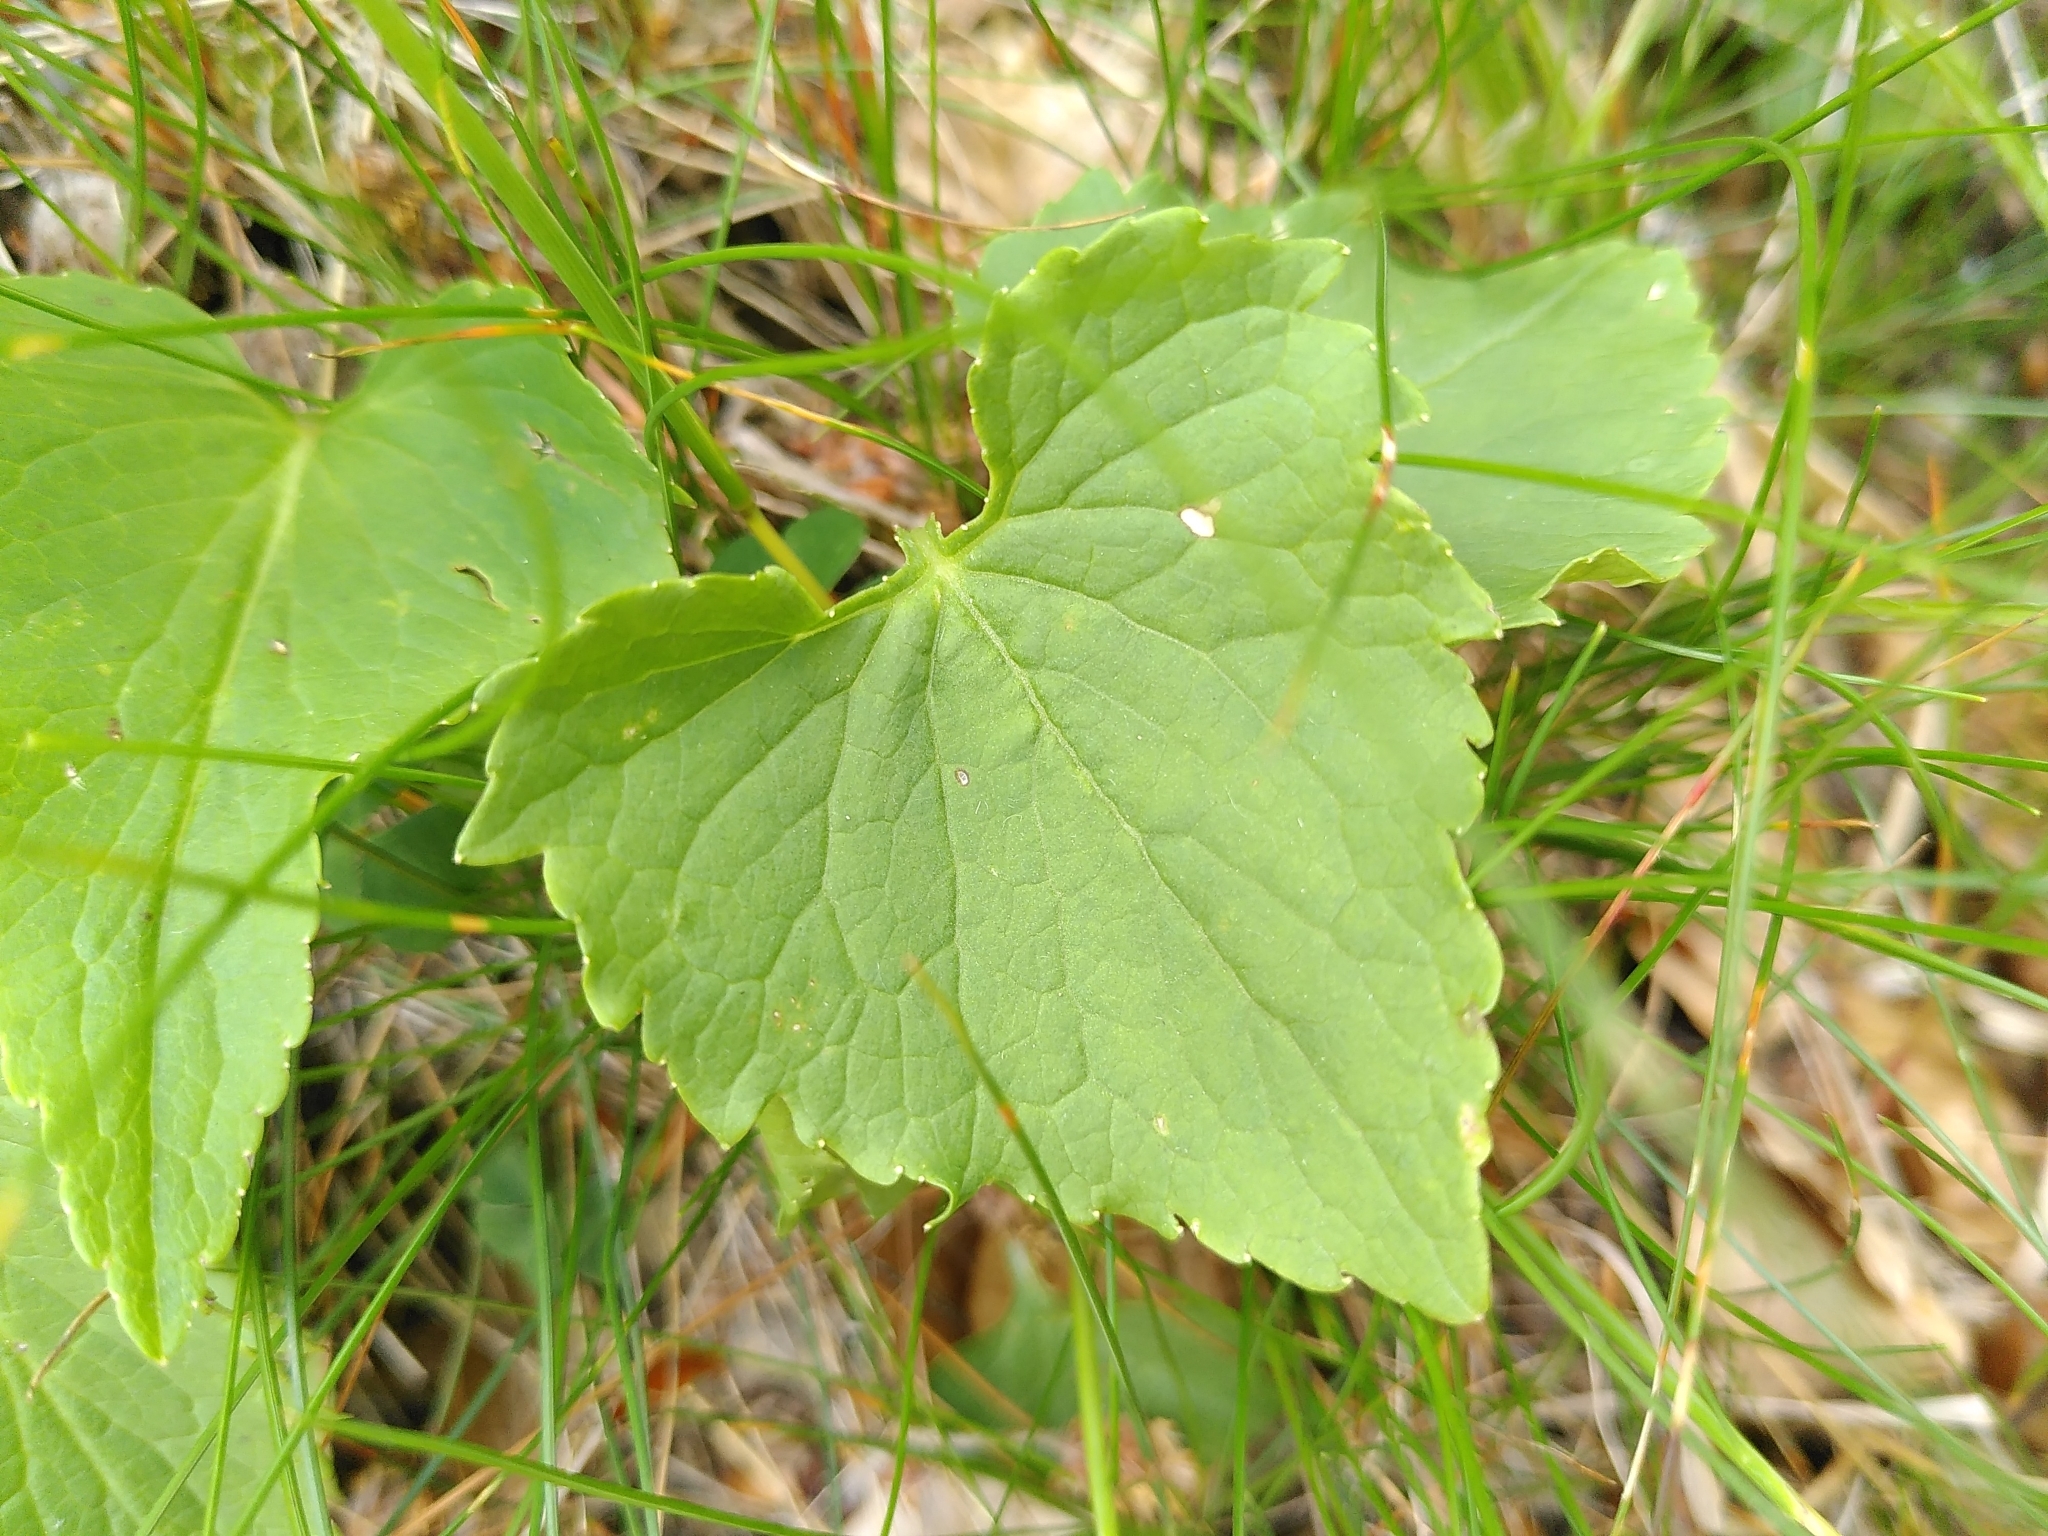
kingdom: Plantae
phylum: Tracheophyta
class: Magnoliopsida
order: Asterales
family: Campanulaceae
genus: Phyteuma
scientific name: Phyteuma spicatum
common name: Spiked rampion
